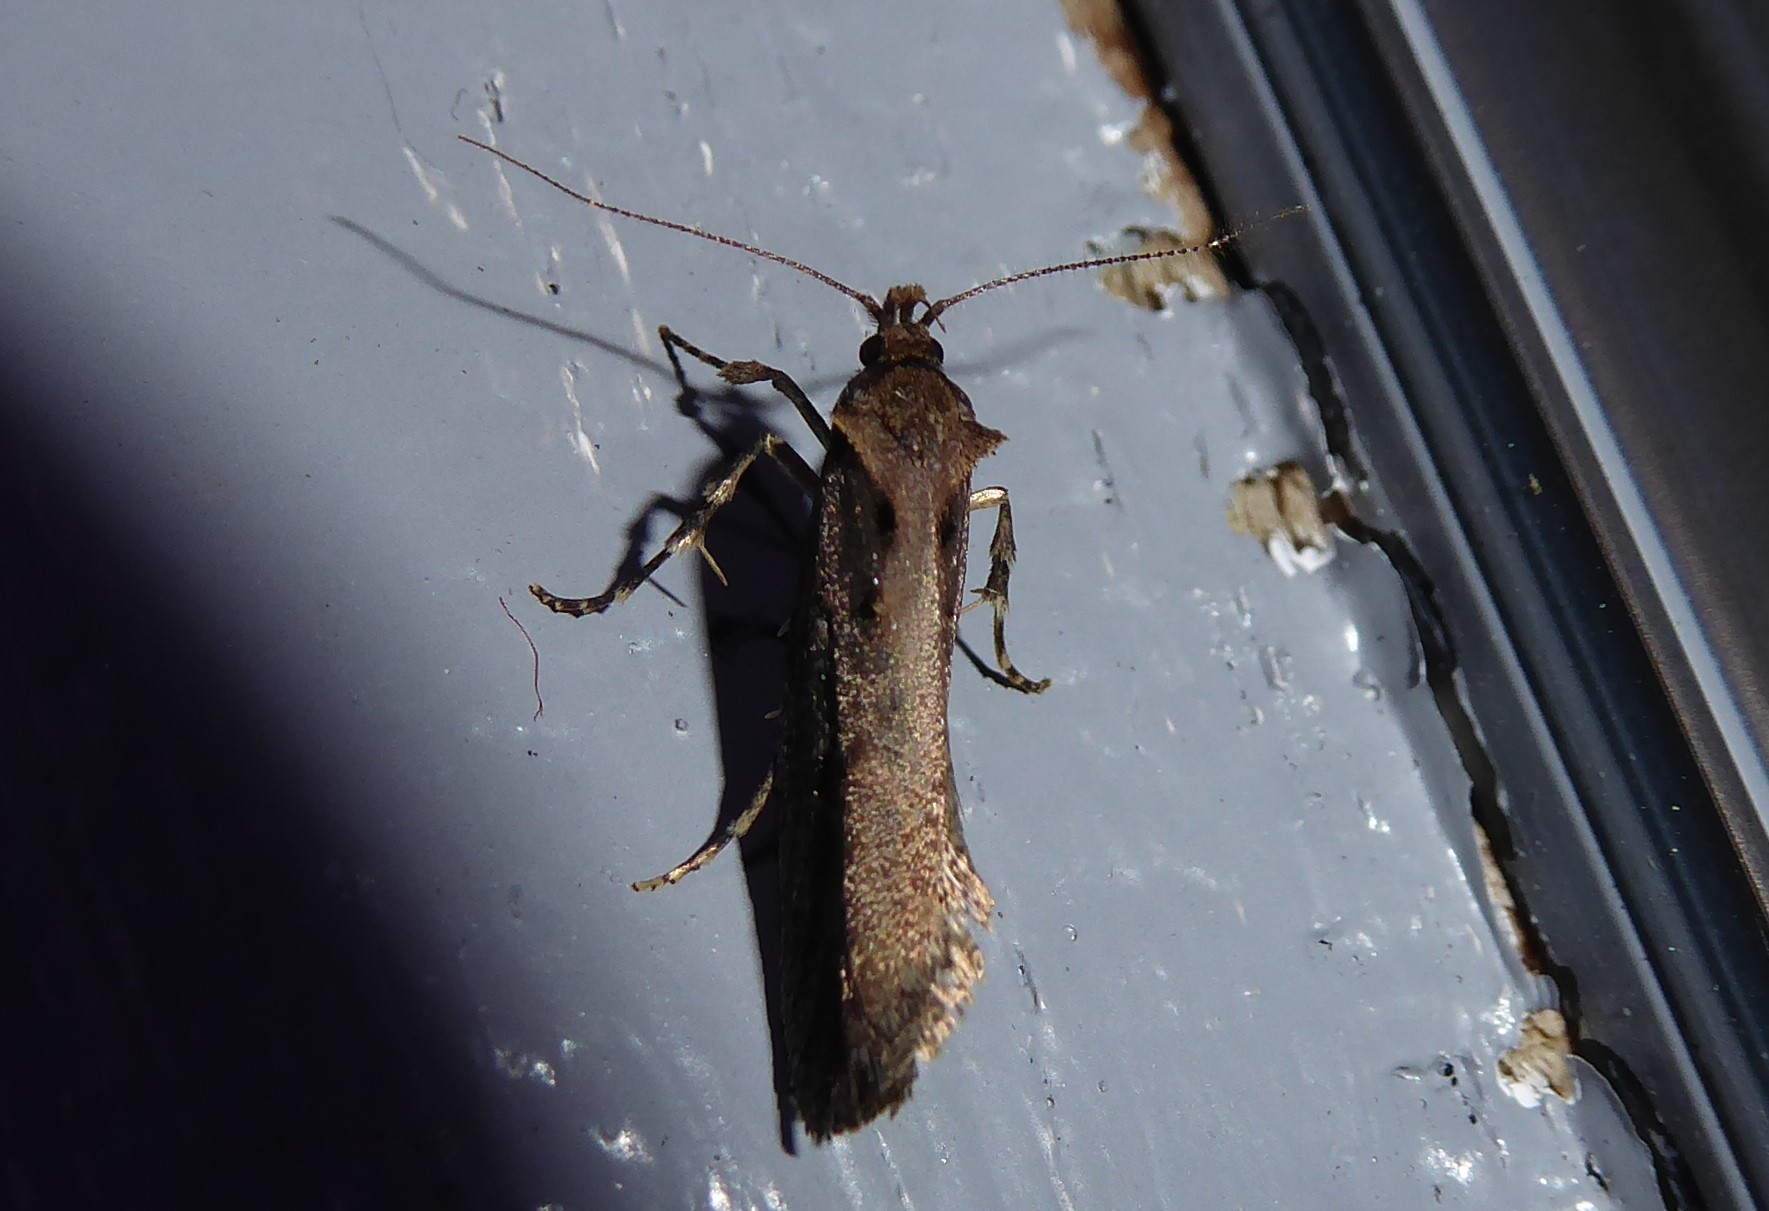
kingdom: Animalia
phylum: Arthropoda
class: Insecta
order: Lepidoptera
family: Oecophoridae
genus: Atomotricha
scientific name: Atomotricha chloronota
